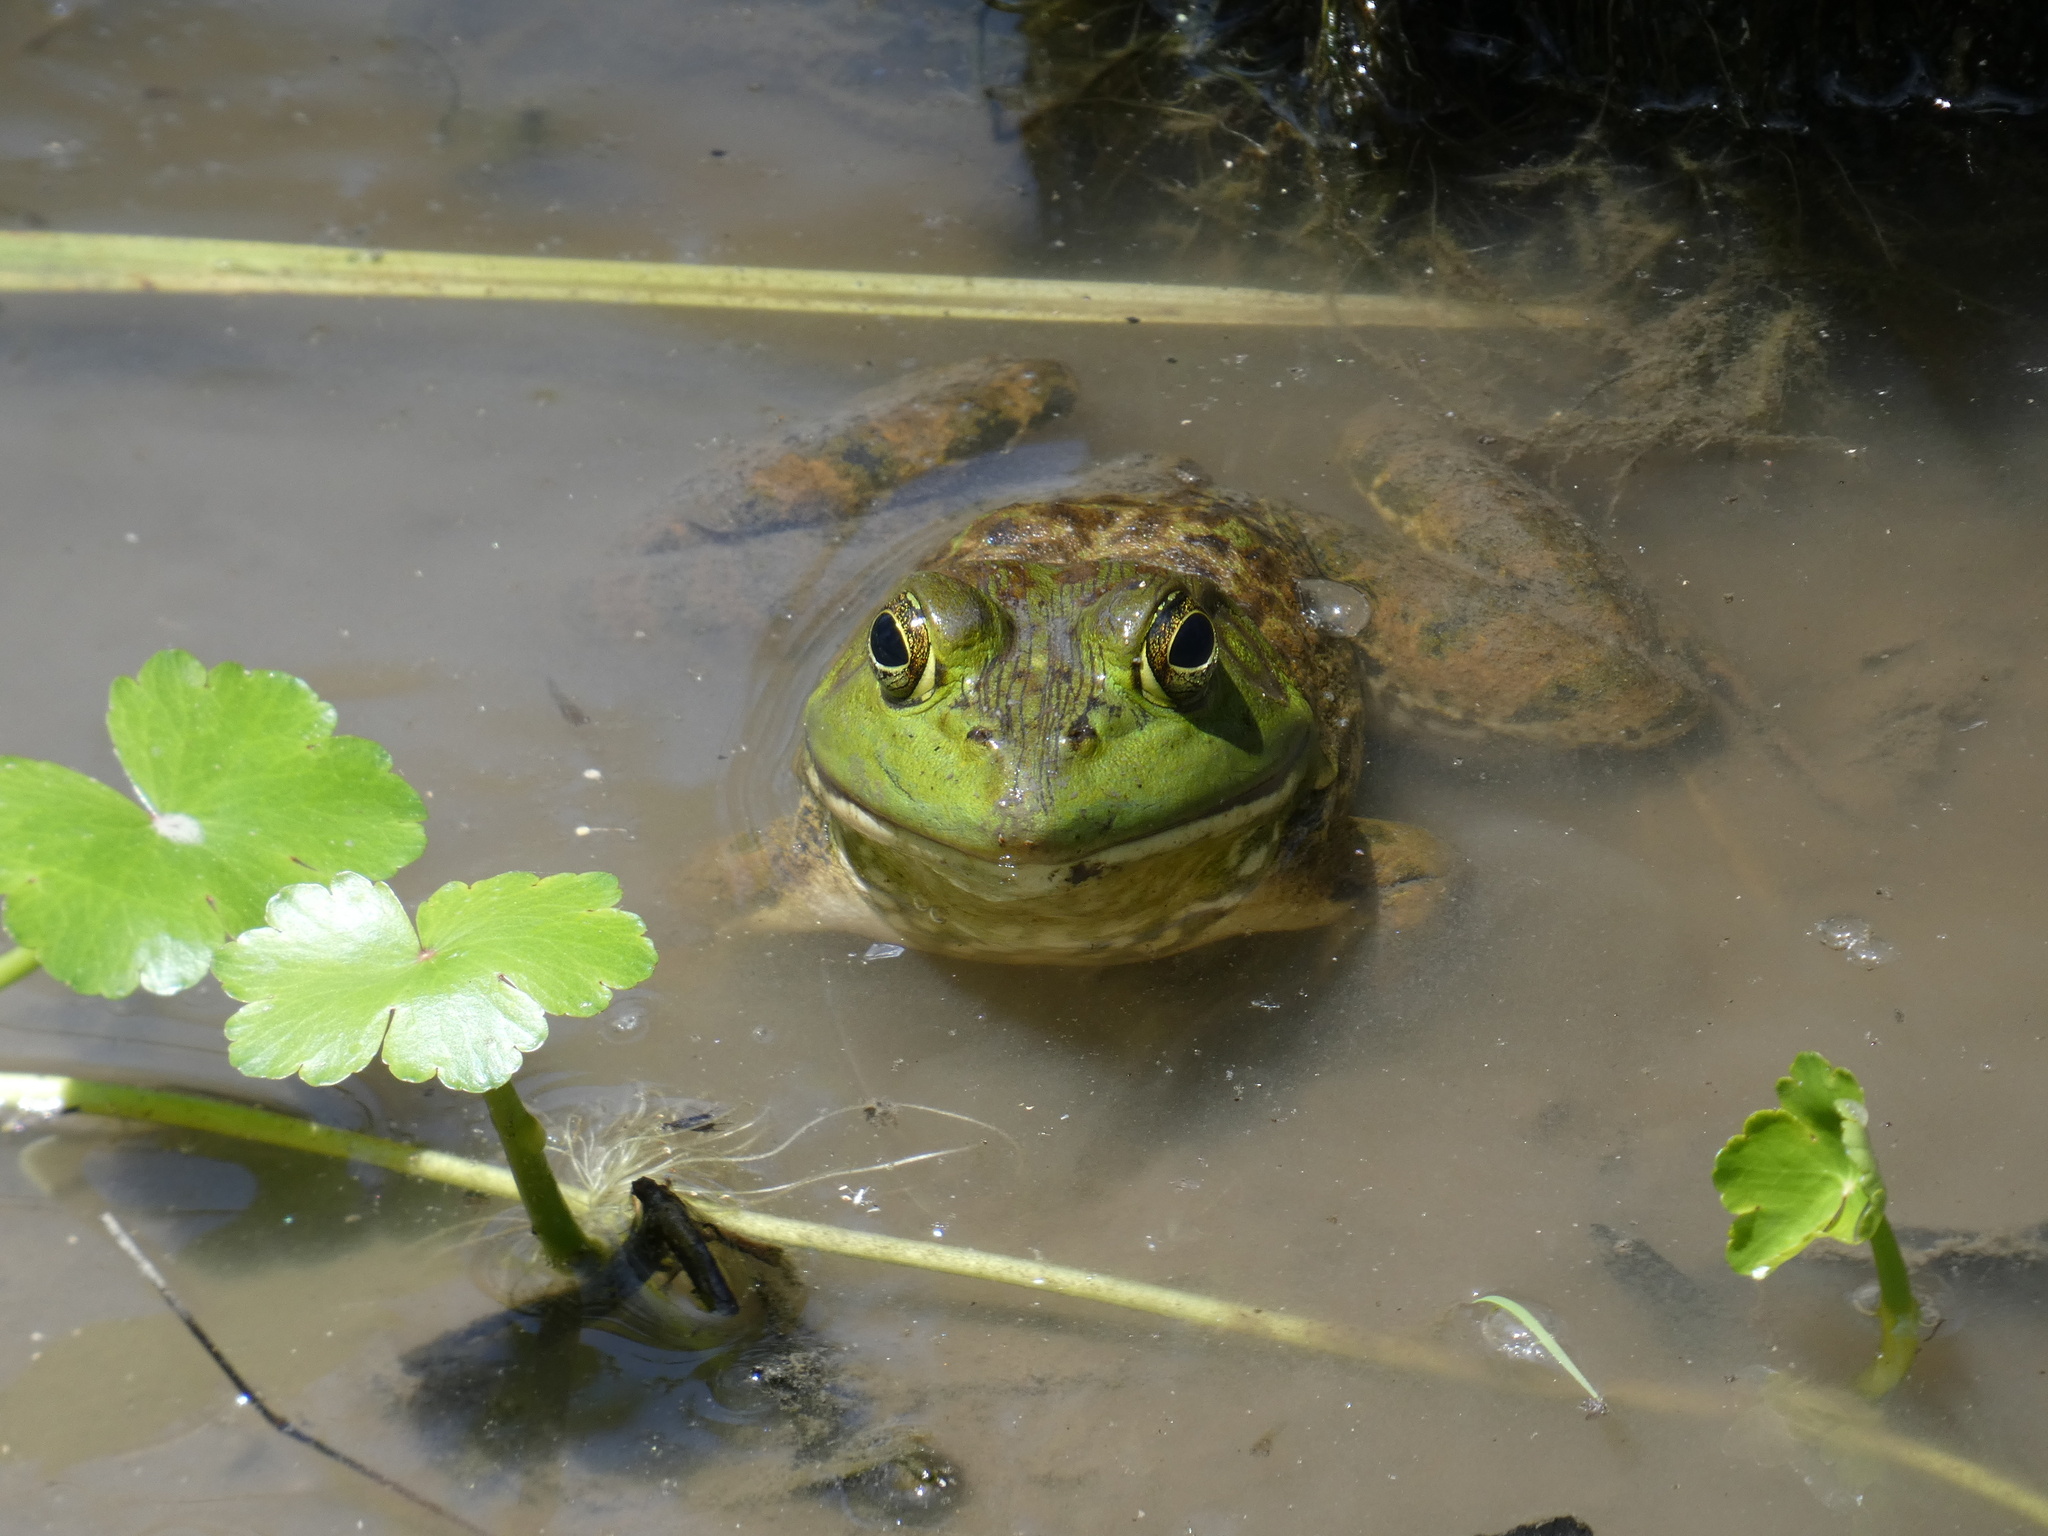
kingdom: Animalia
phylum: Chordata
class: Amphibia
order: Anura
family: Ranidae
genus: Lithobates
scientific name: Lithobates catesbeianus
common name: American bullfrog
